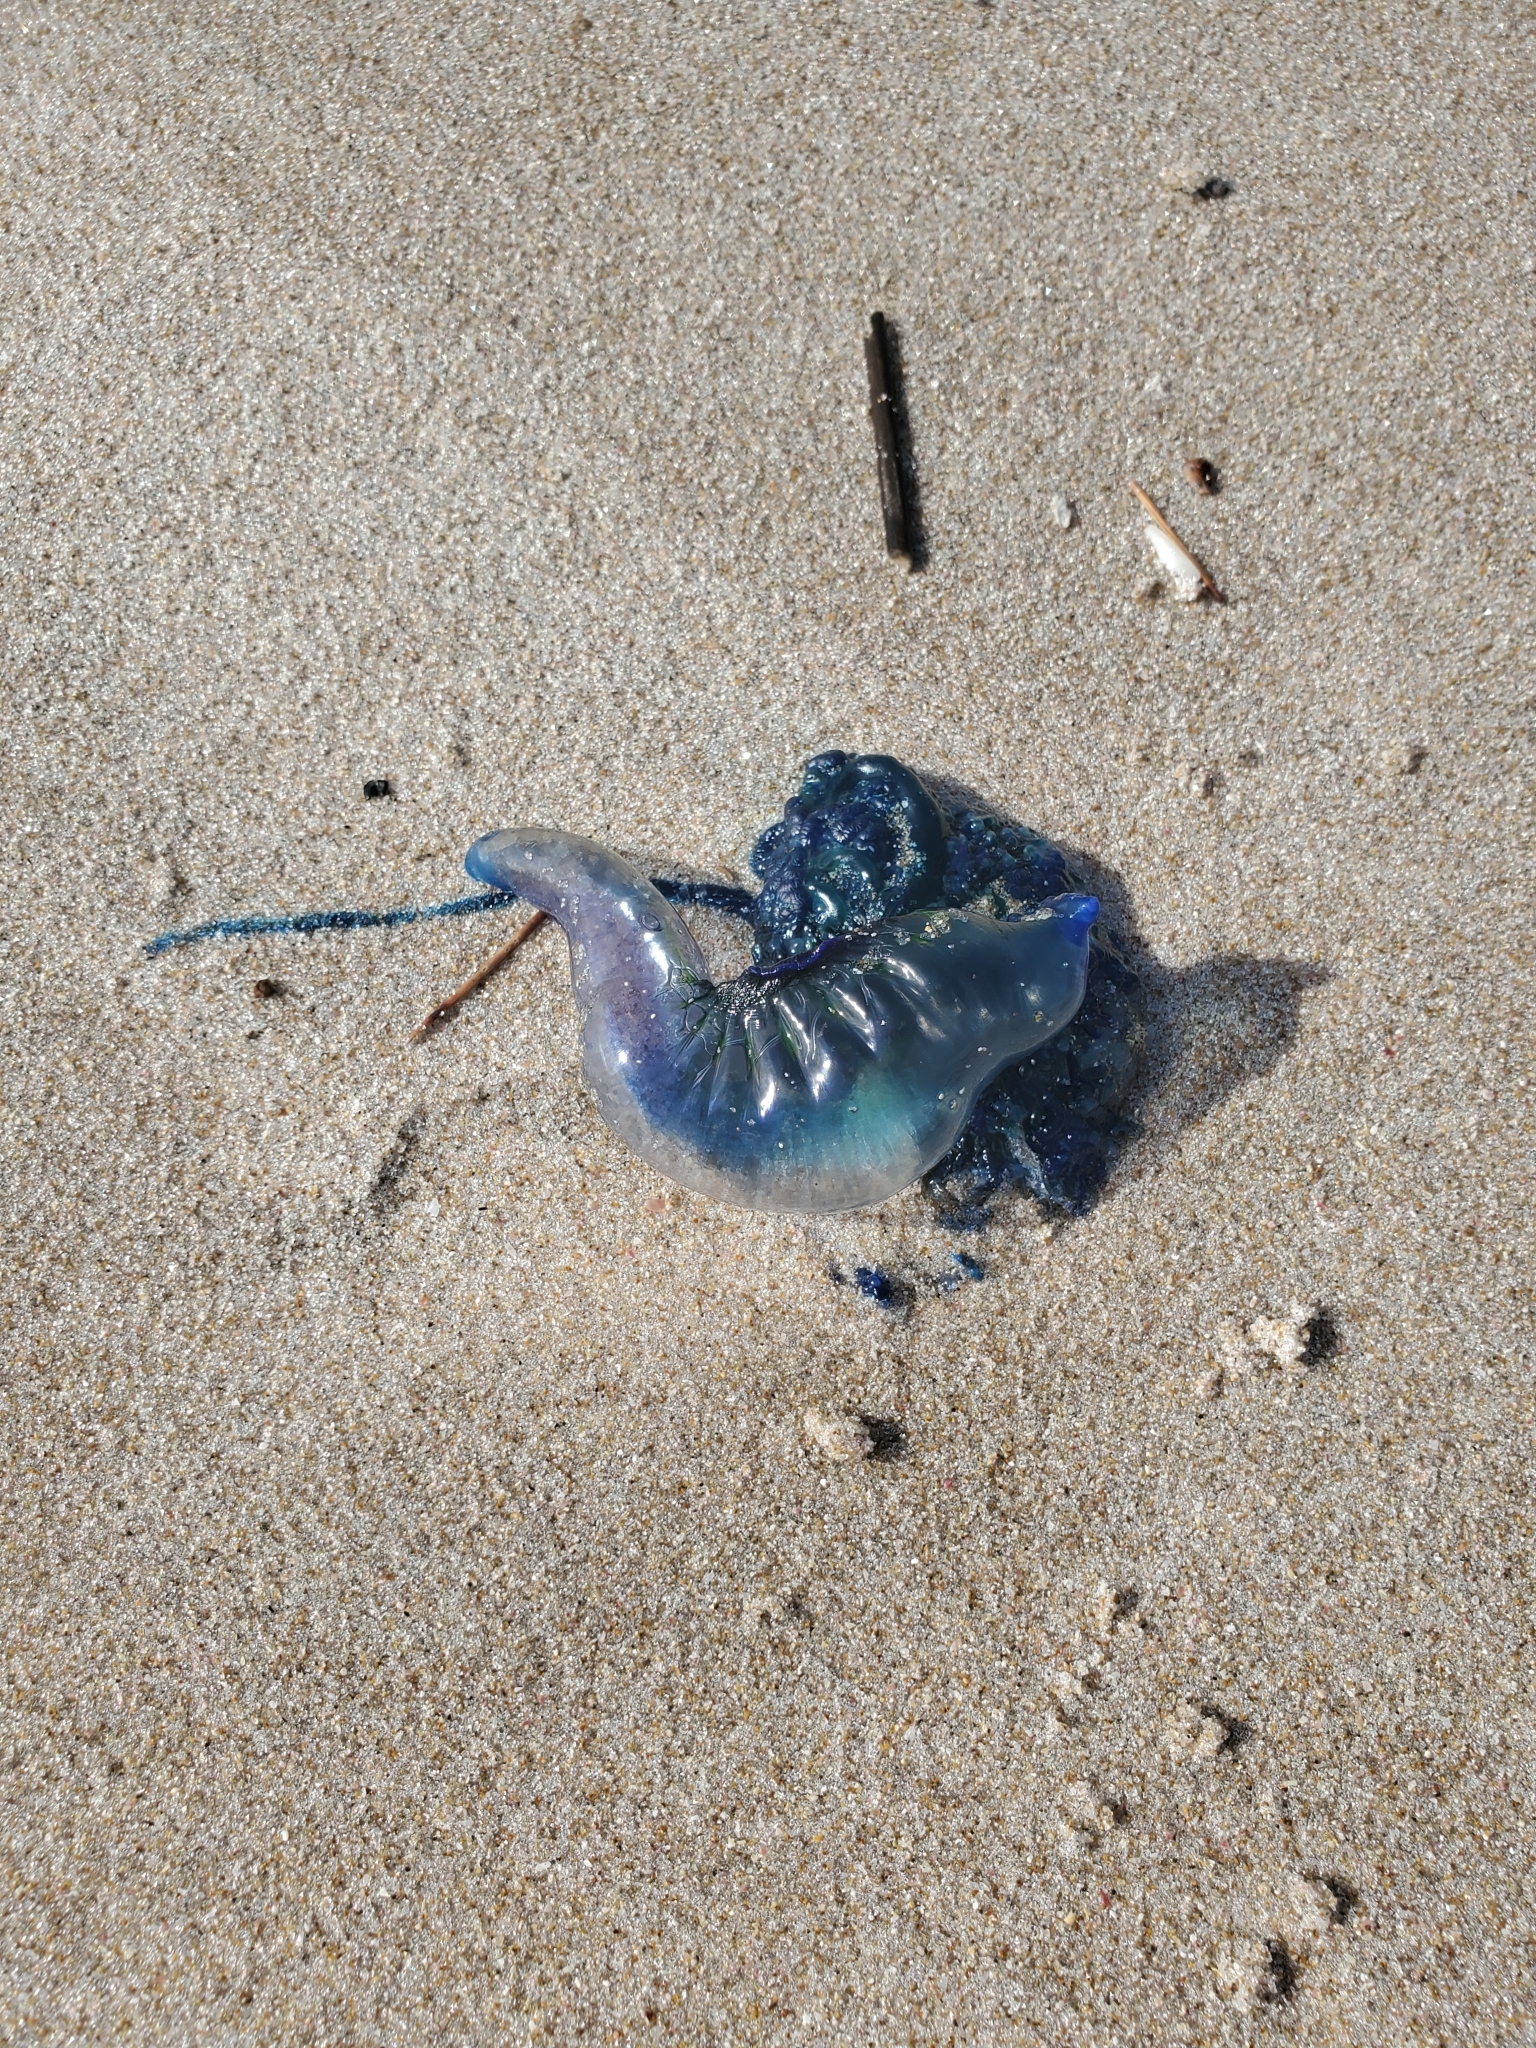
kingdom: Animalia
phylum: Cnidaria
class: Hydrozoa
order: Siphonophorae
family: Physaliidae
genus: Physalia
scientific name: Physalia physalis
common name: Portuguese man-of-war
